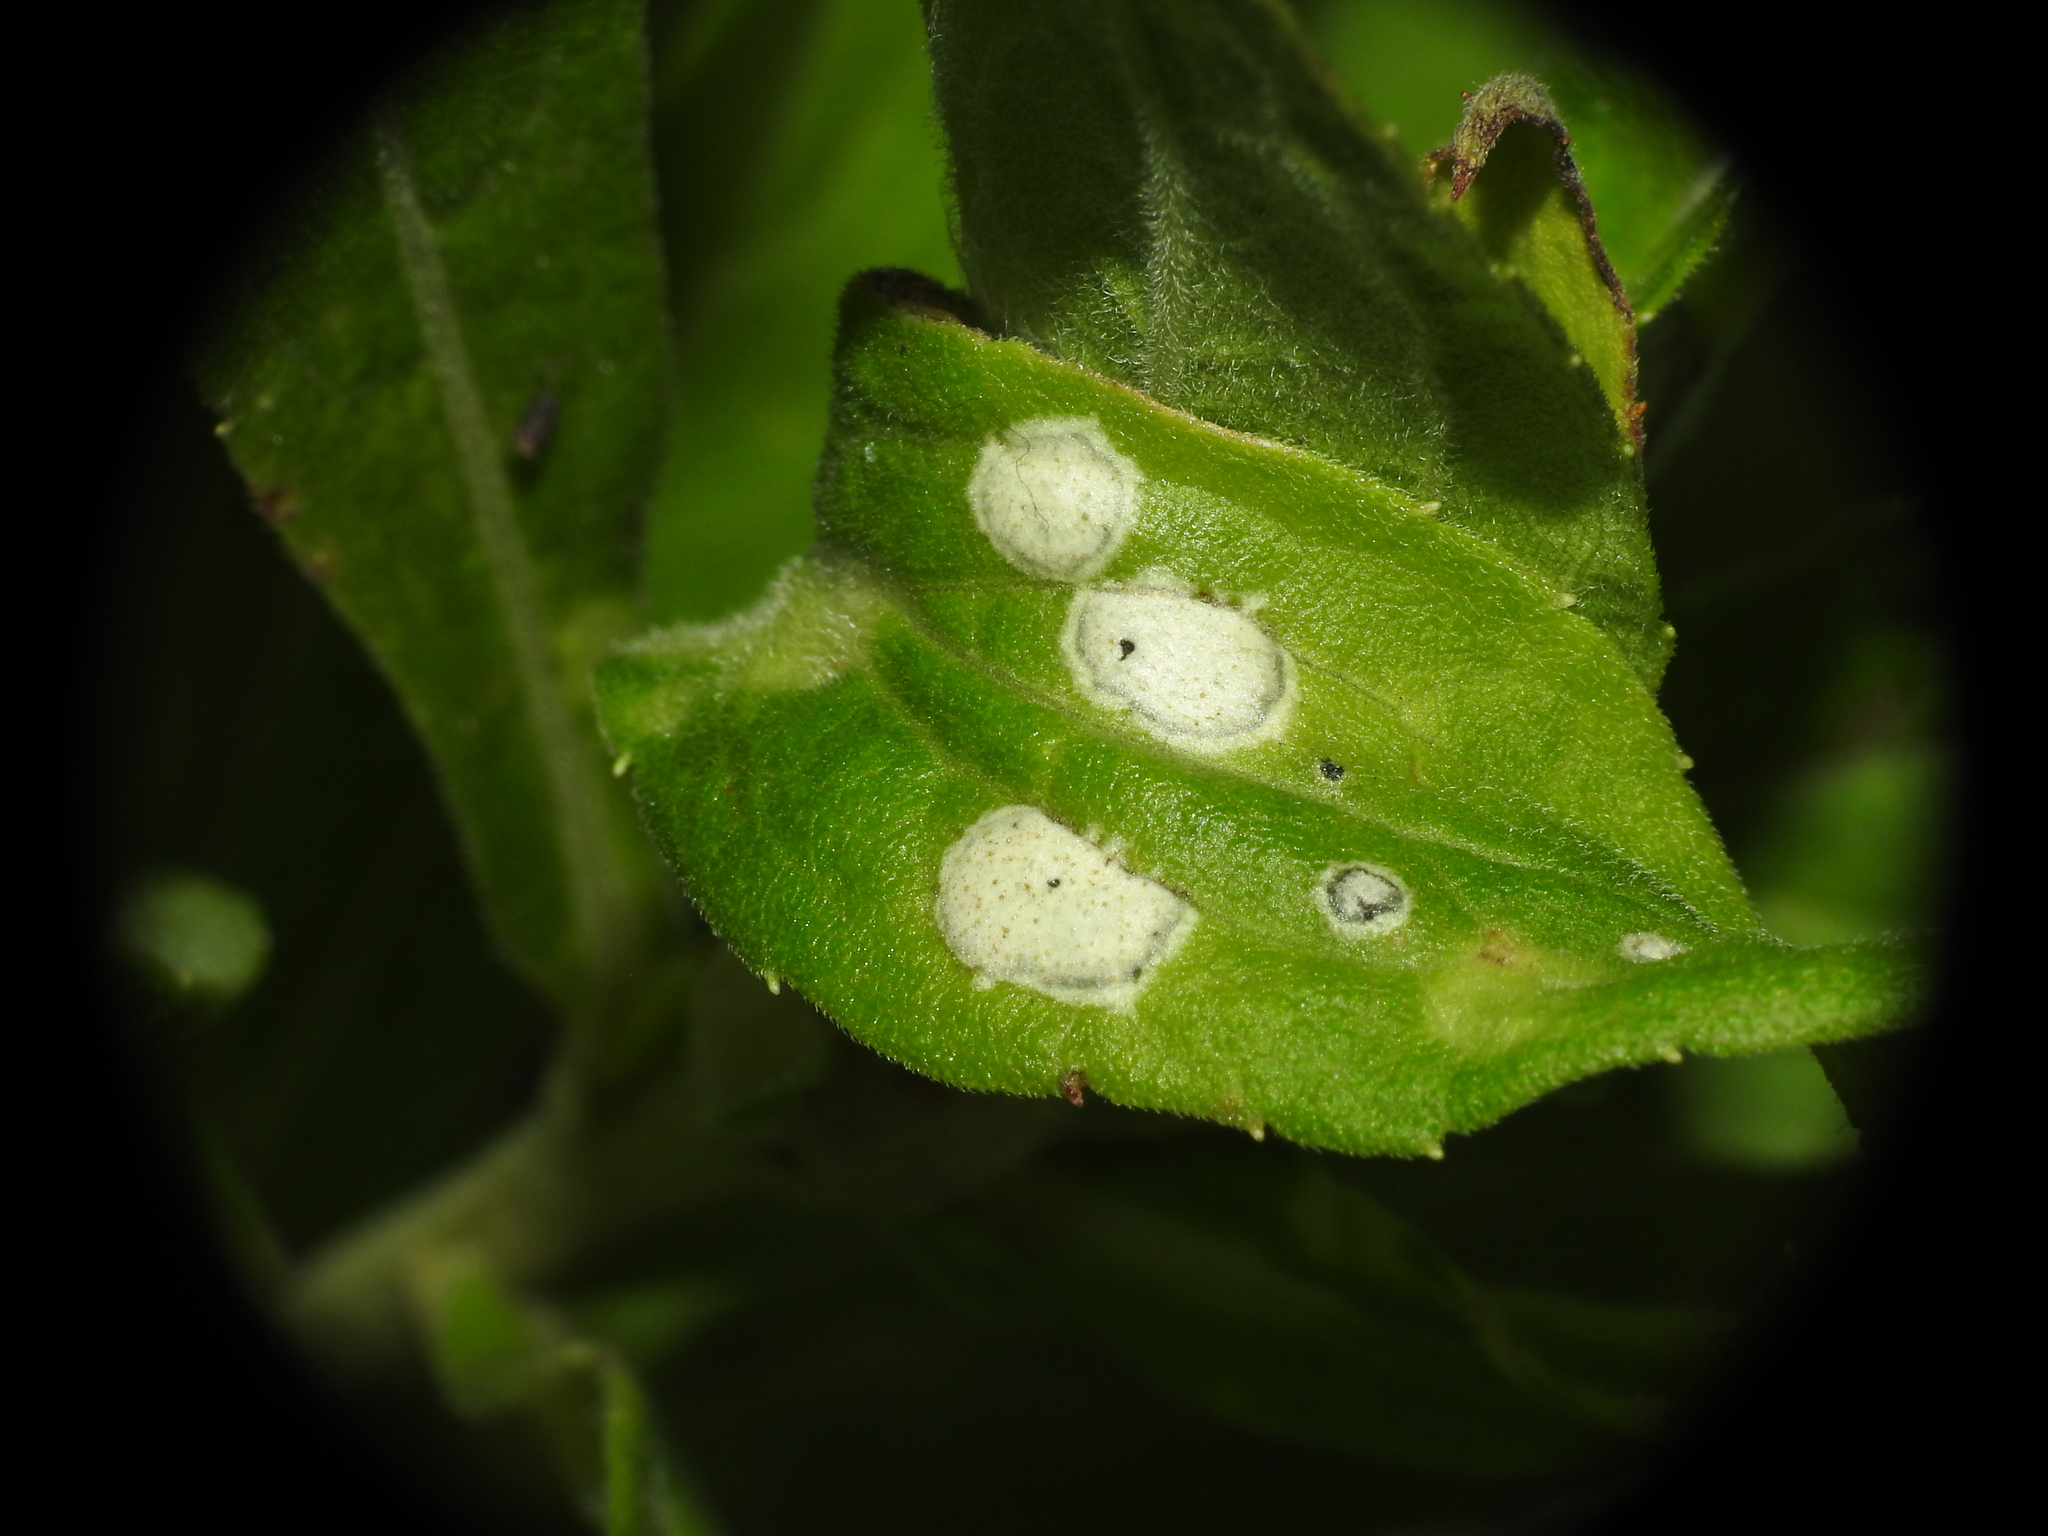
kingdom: Animalia
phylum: Arthropoda
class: Insecta
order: Diptera
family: Cecidomyiidae
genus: Asteromyia
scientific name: Asteromyia carbonifera
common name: Carbonifera goldenrod gall midge
